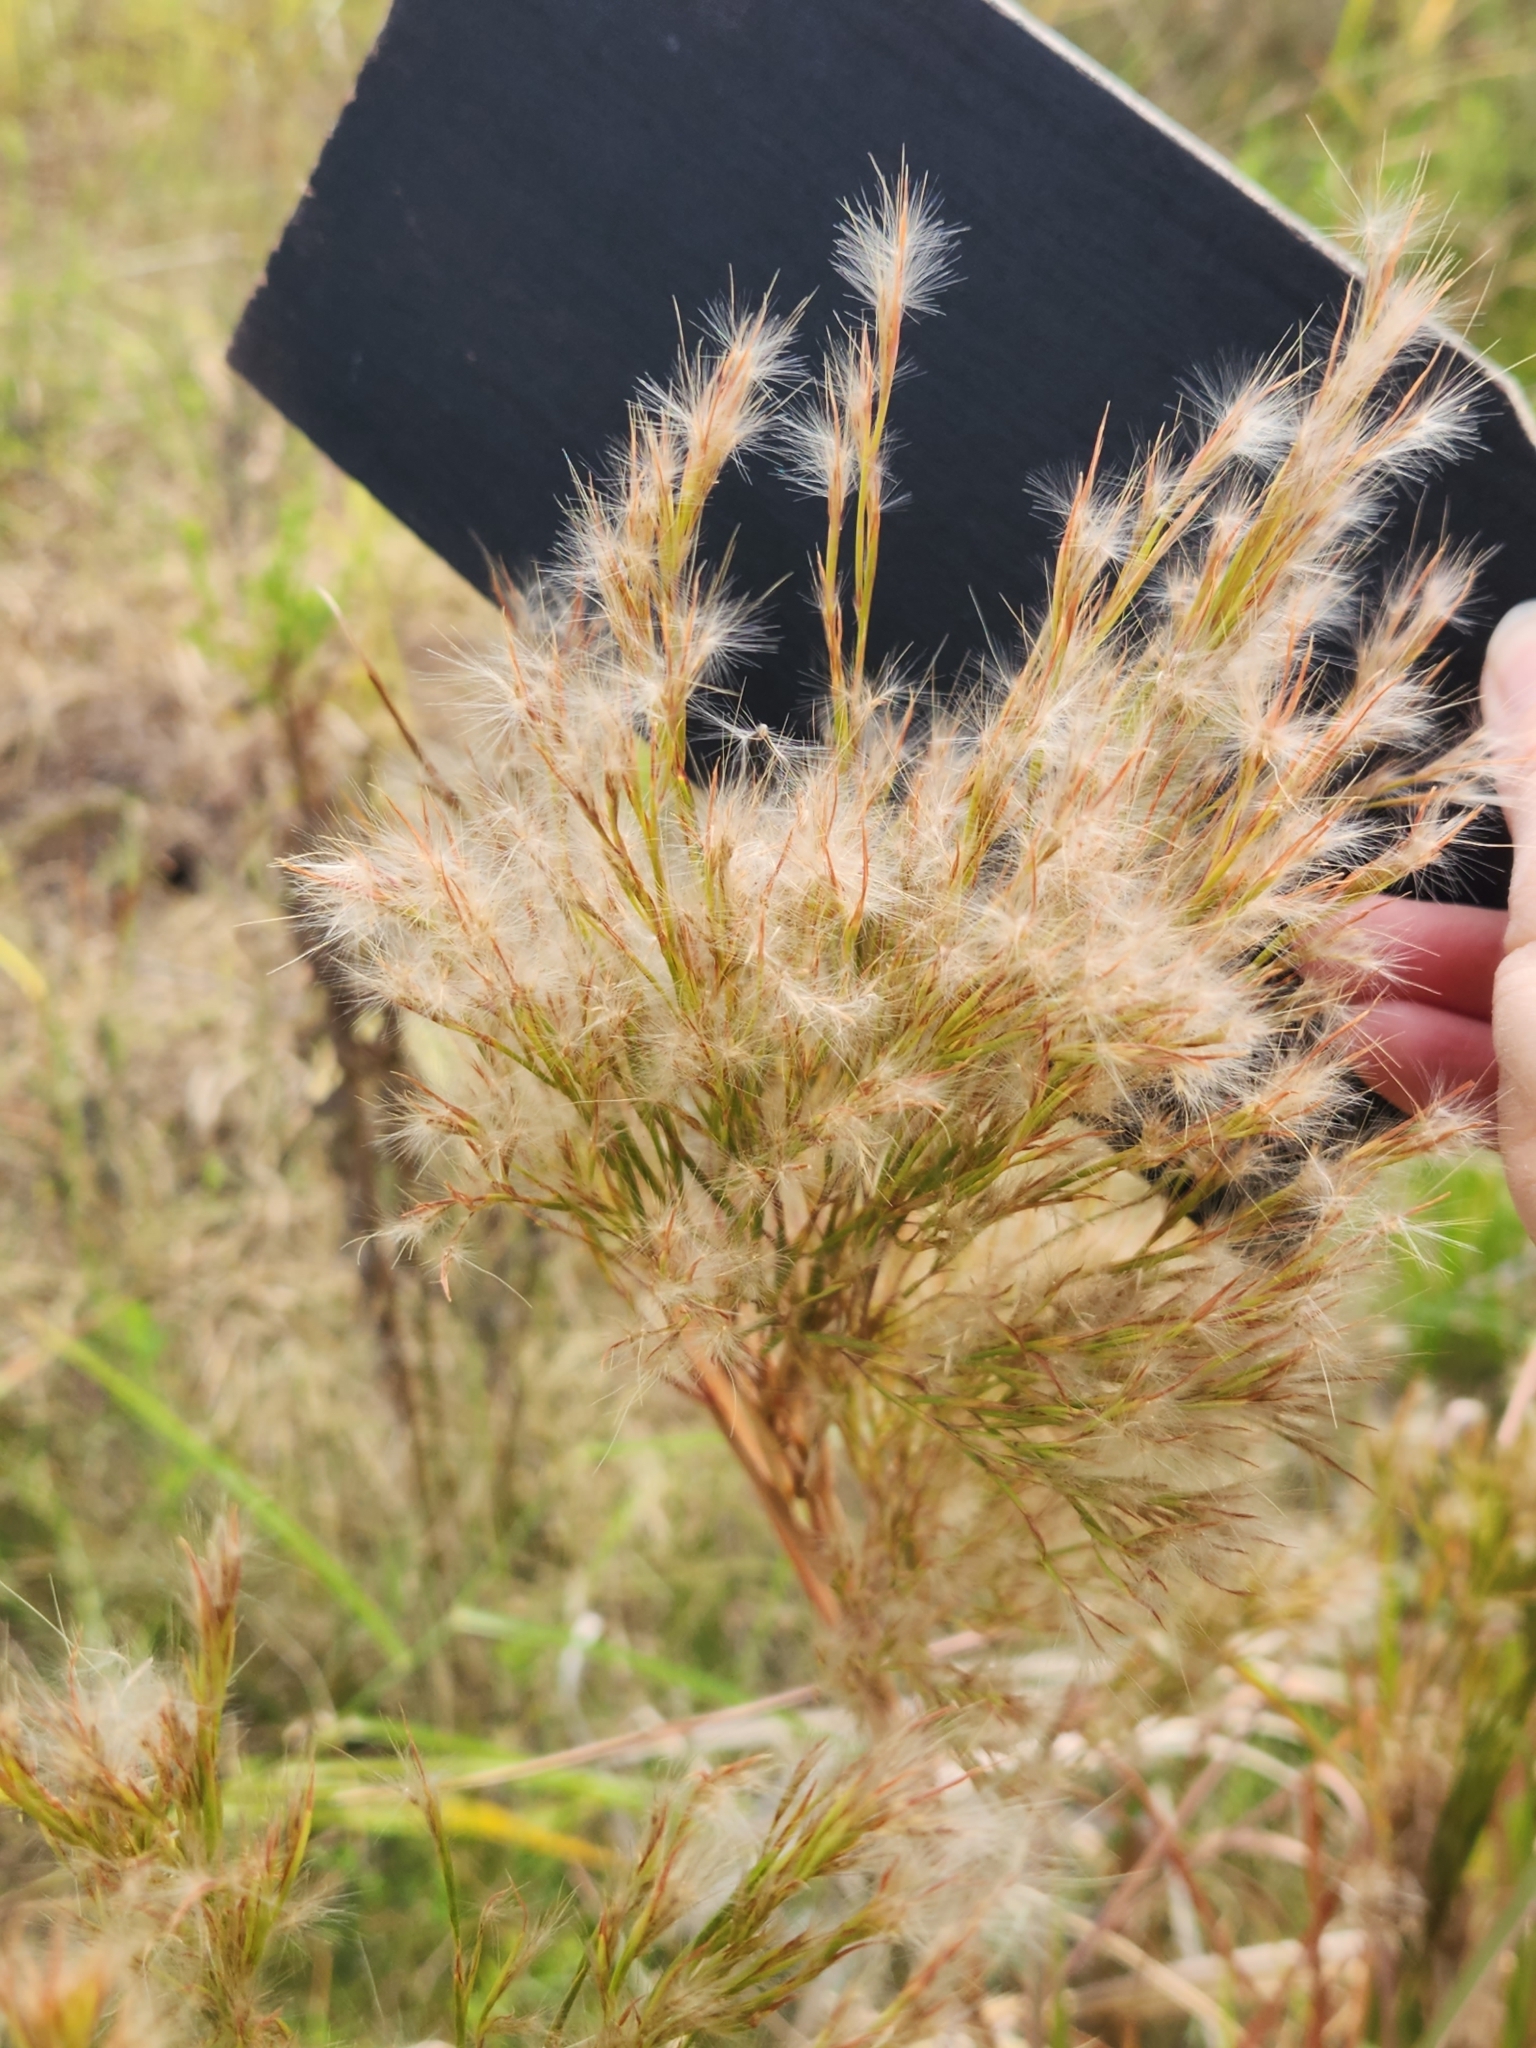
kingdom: Plantae
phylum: Tracheophyta
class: Liliopsida
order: Poales
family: Poaceae
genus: Andropogon
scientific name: Andropogon tenuispatheus
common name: Bushy bluestem
